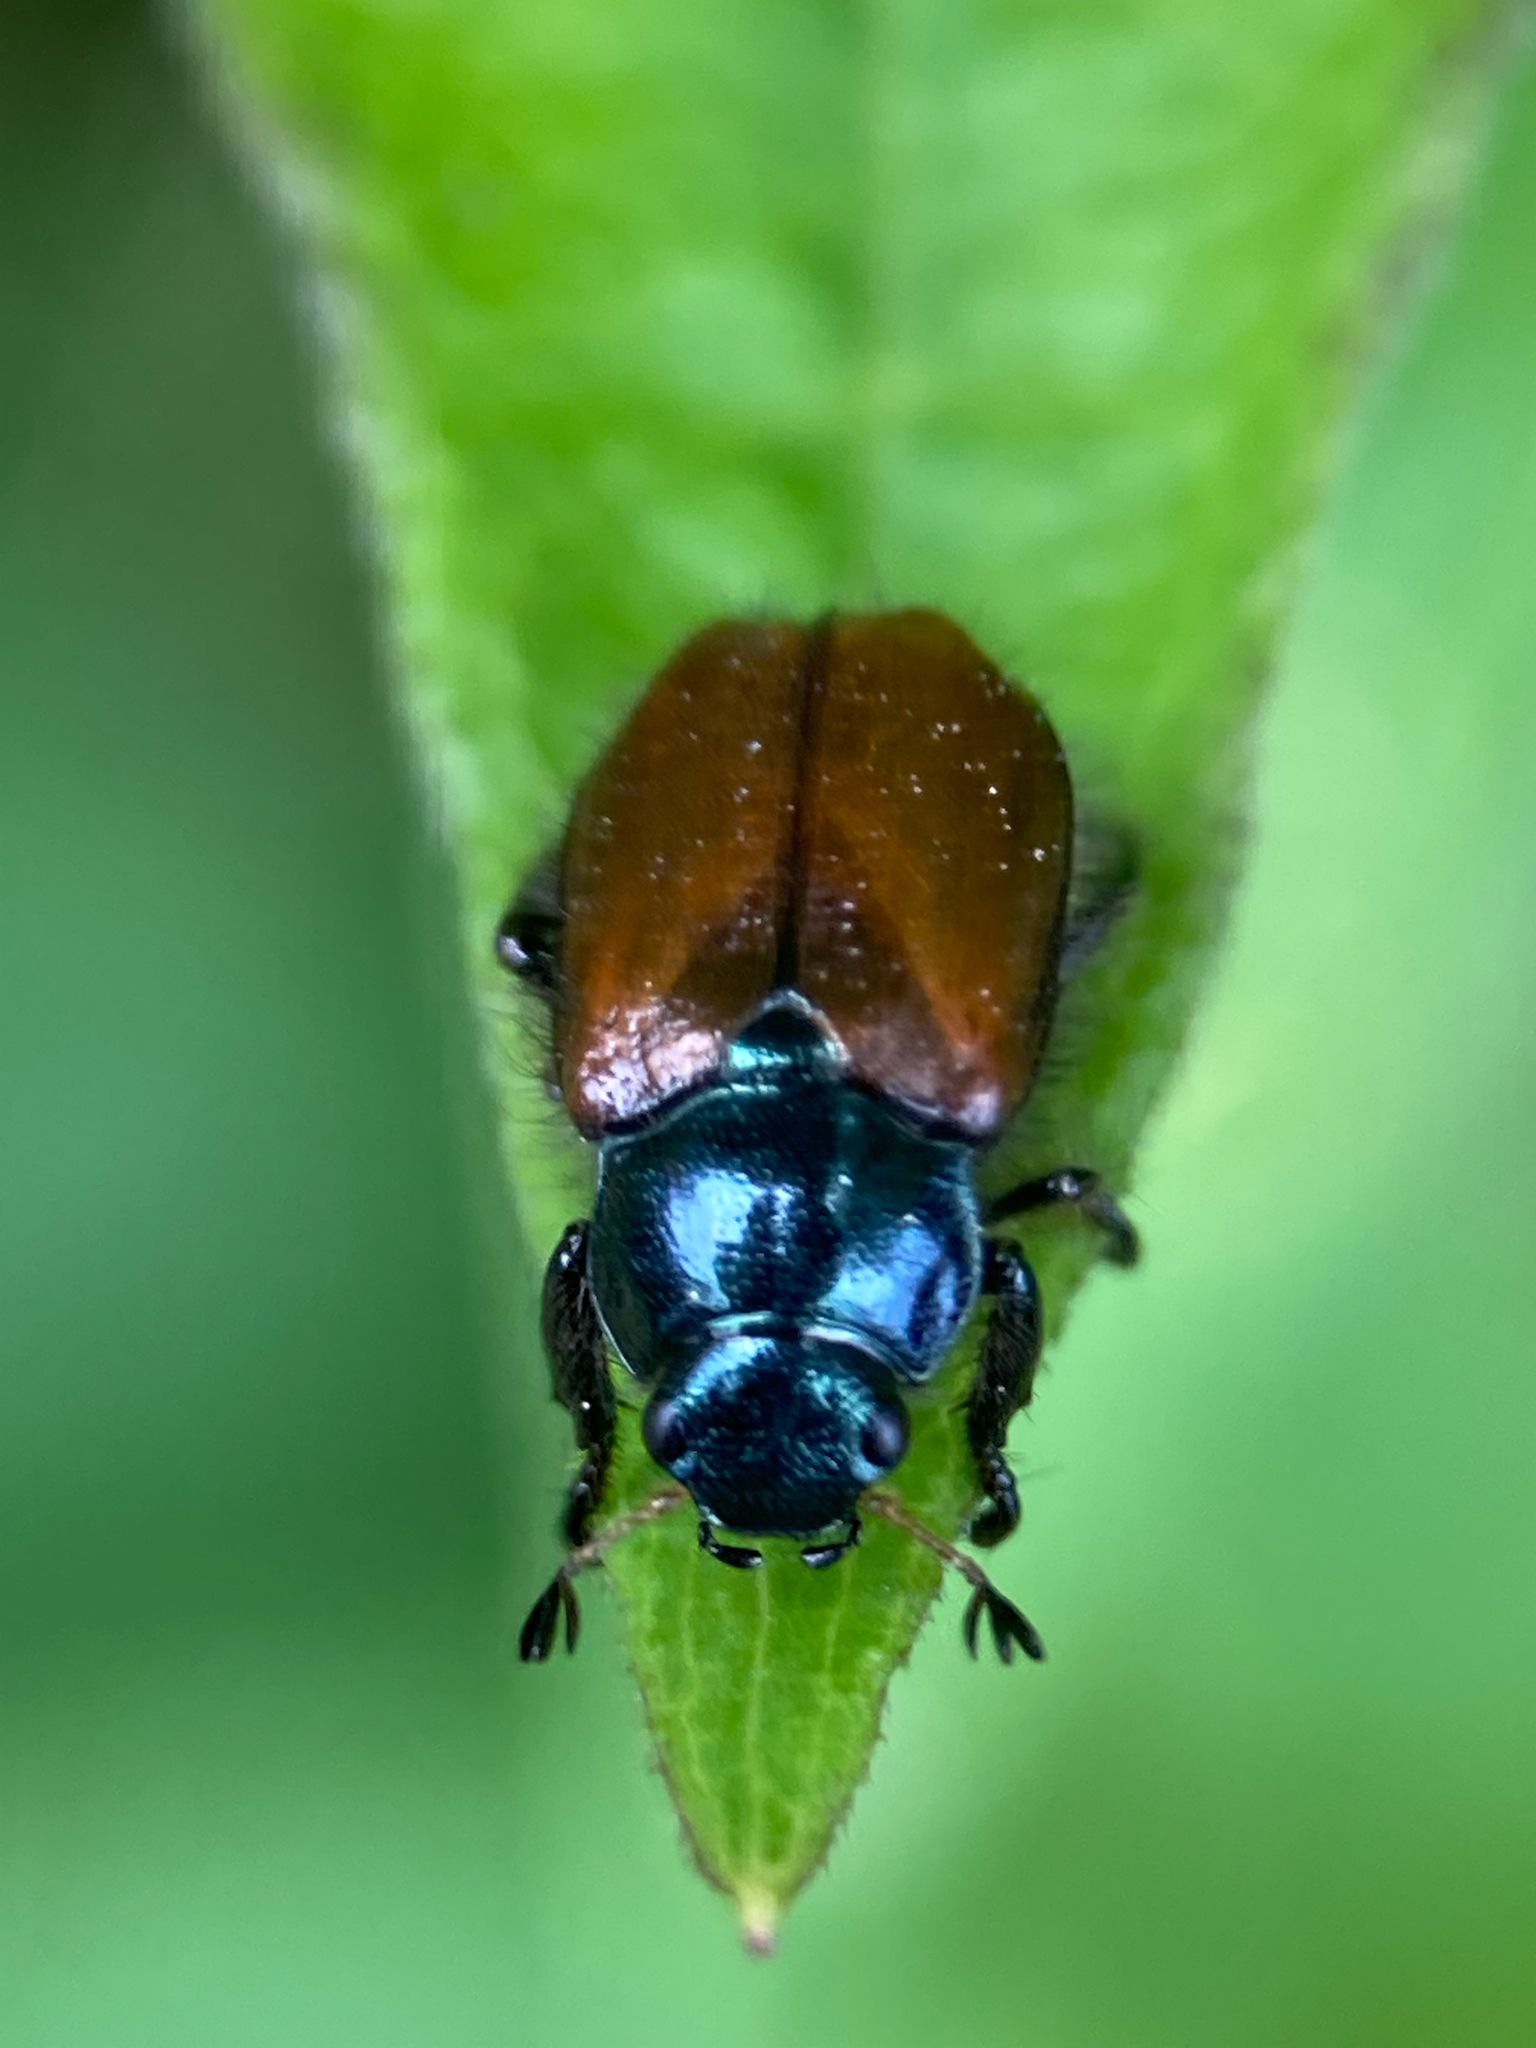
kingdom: Animalia
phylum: Arthropoda
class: Insecta
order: Coleoptera
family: Scarabaeidae
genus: Phyllopertha
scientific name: Phyllopertha horticola
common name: Garden chafer
